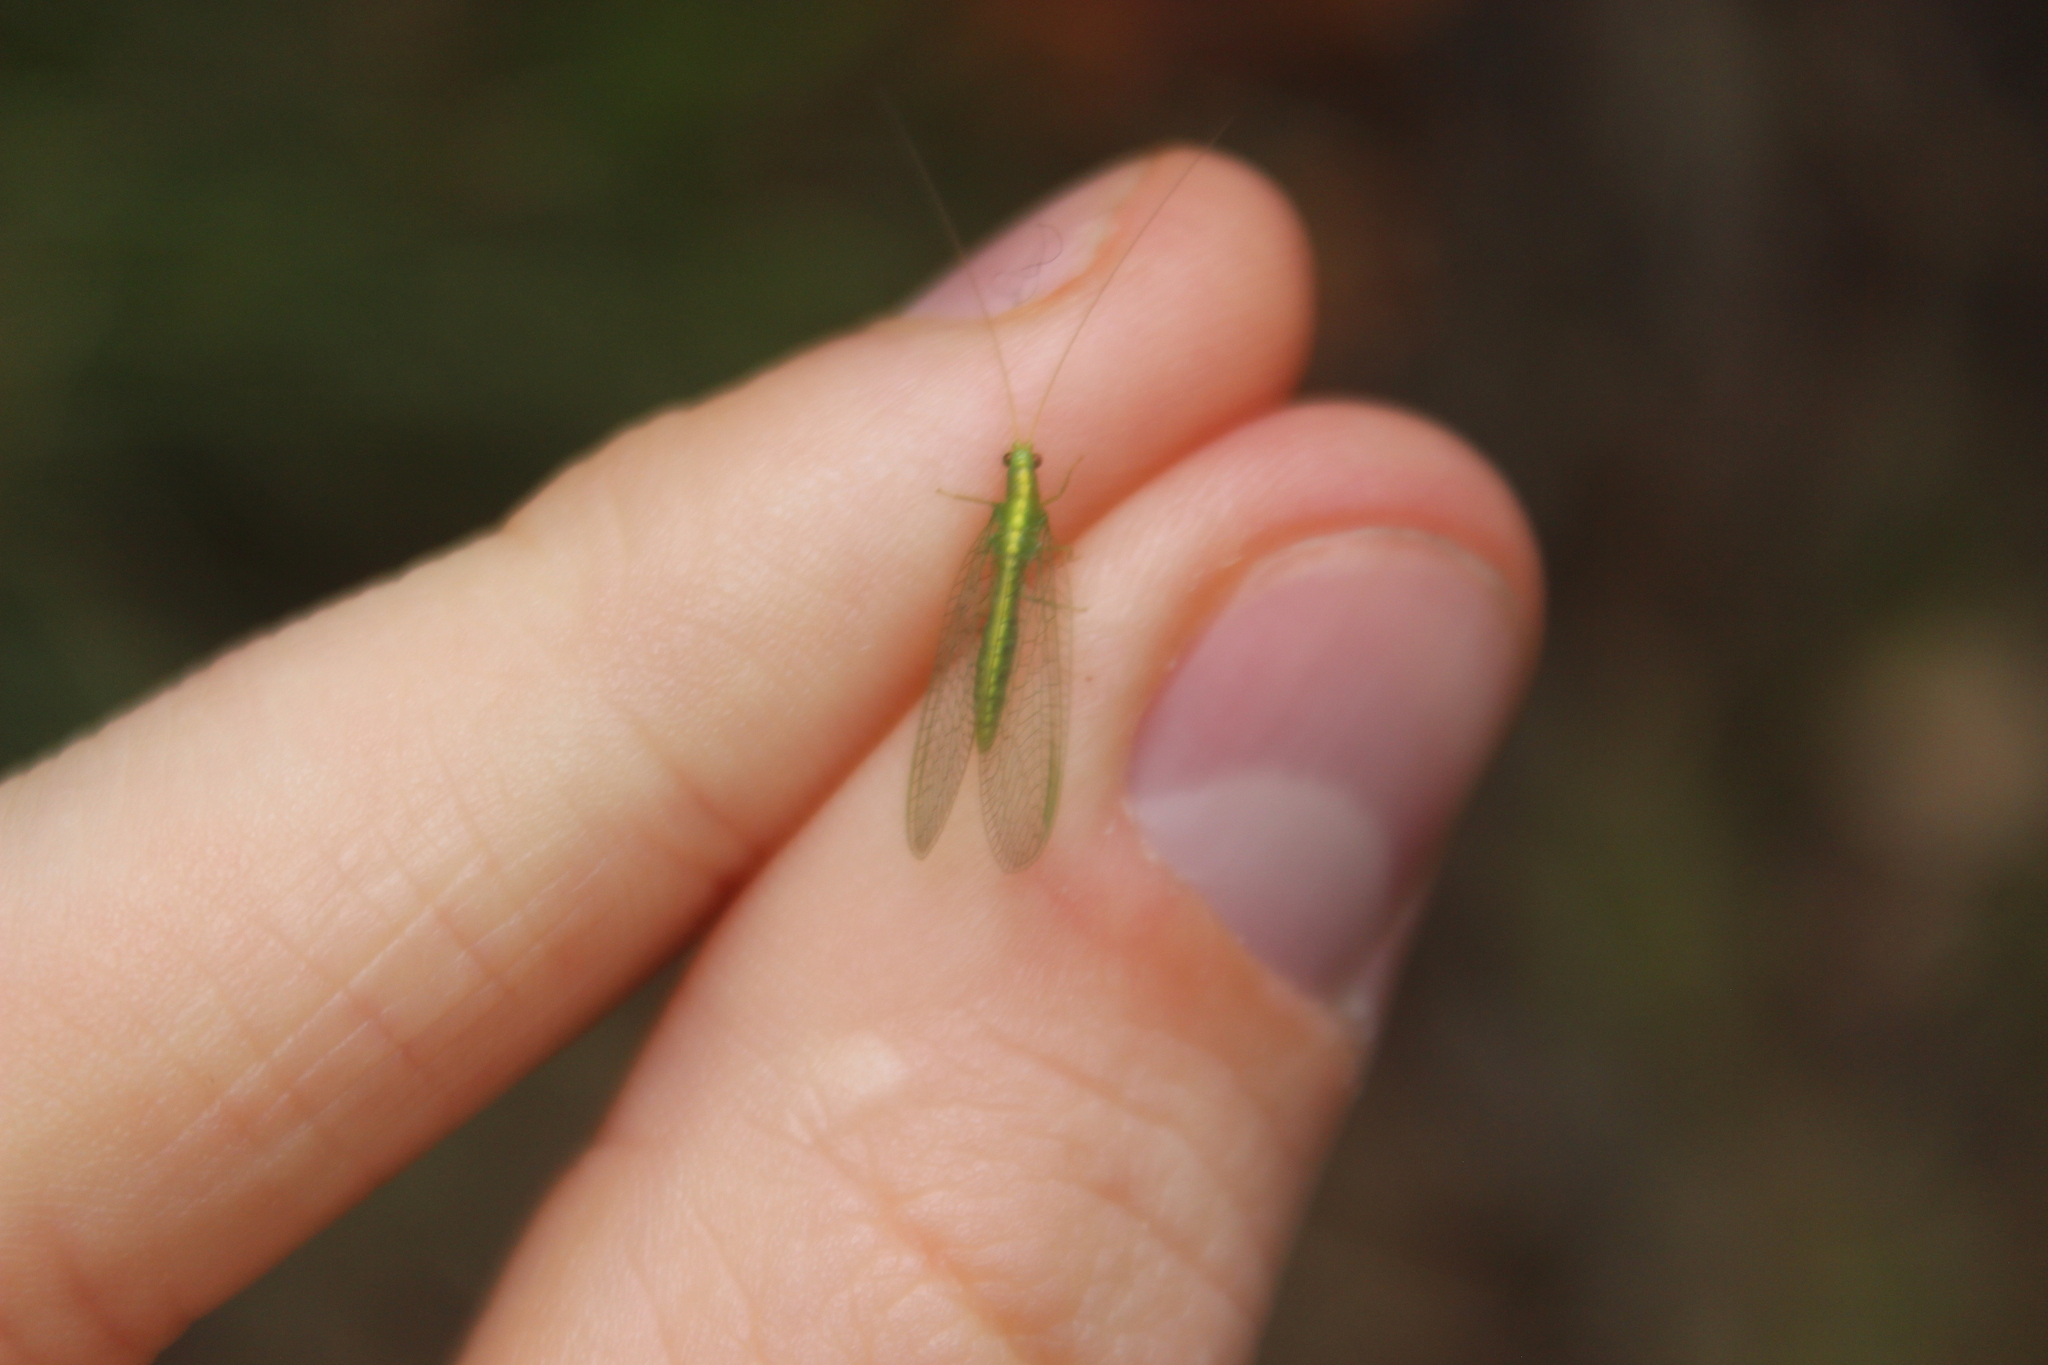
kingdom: Animalia
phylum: Arthropoda
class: Insecta
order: Neuroptera
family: Chrysopidae
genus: Mallada
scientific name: Mallada basalis
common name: Green lacewing
